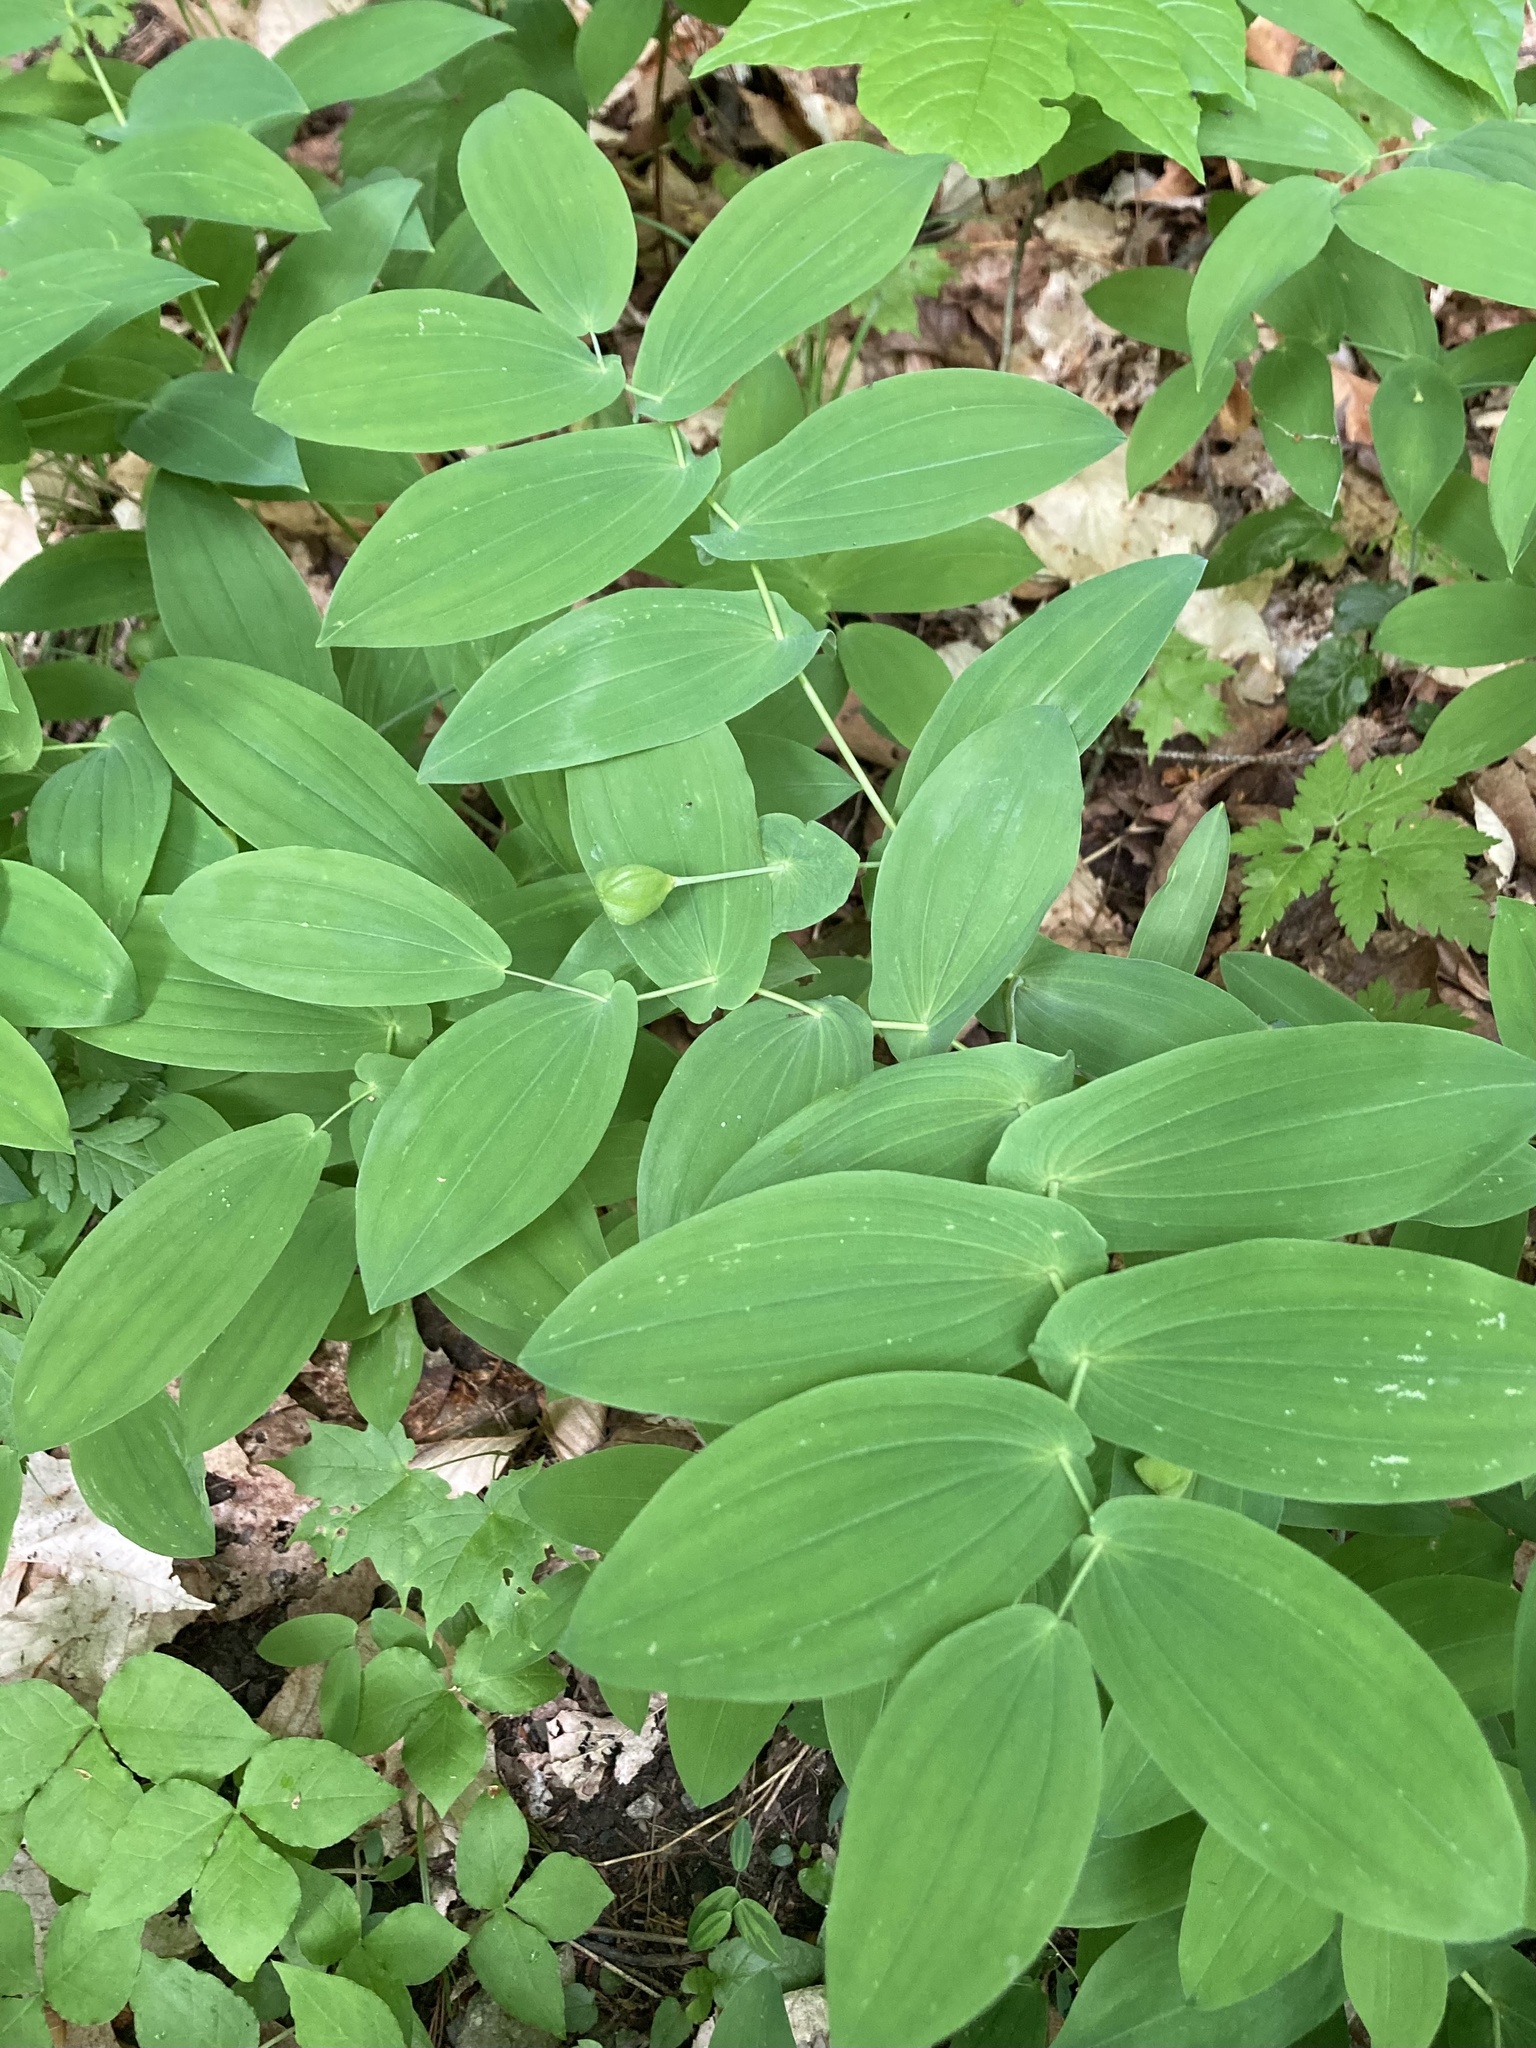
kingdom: Plantae
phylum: Tracheophyta
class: Liliopsida
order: Liliales
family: Colchicaceae
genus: Uvularia
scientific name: Uvularia grandiflora
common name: Bellwort
